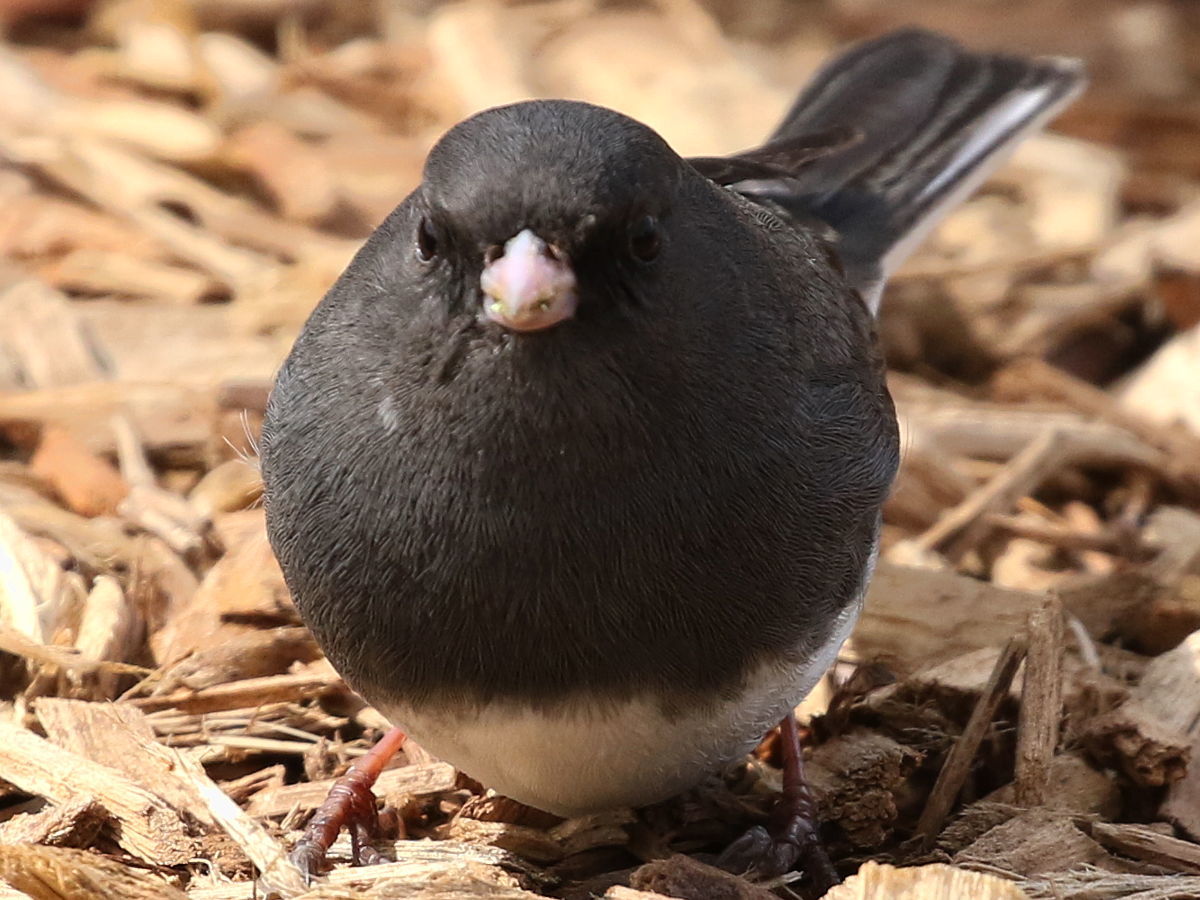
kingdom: Animalia
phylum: Chordata
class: Aves
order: Passeriformes
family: Passerellidae
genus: Junco
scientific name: Junco hyemalis
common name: Dark-eyed junco
